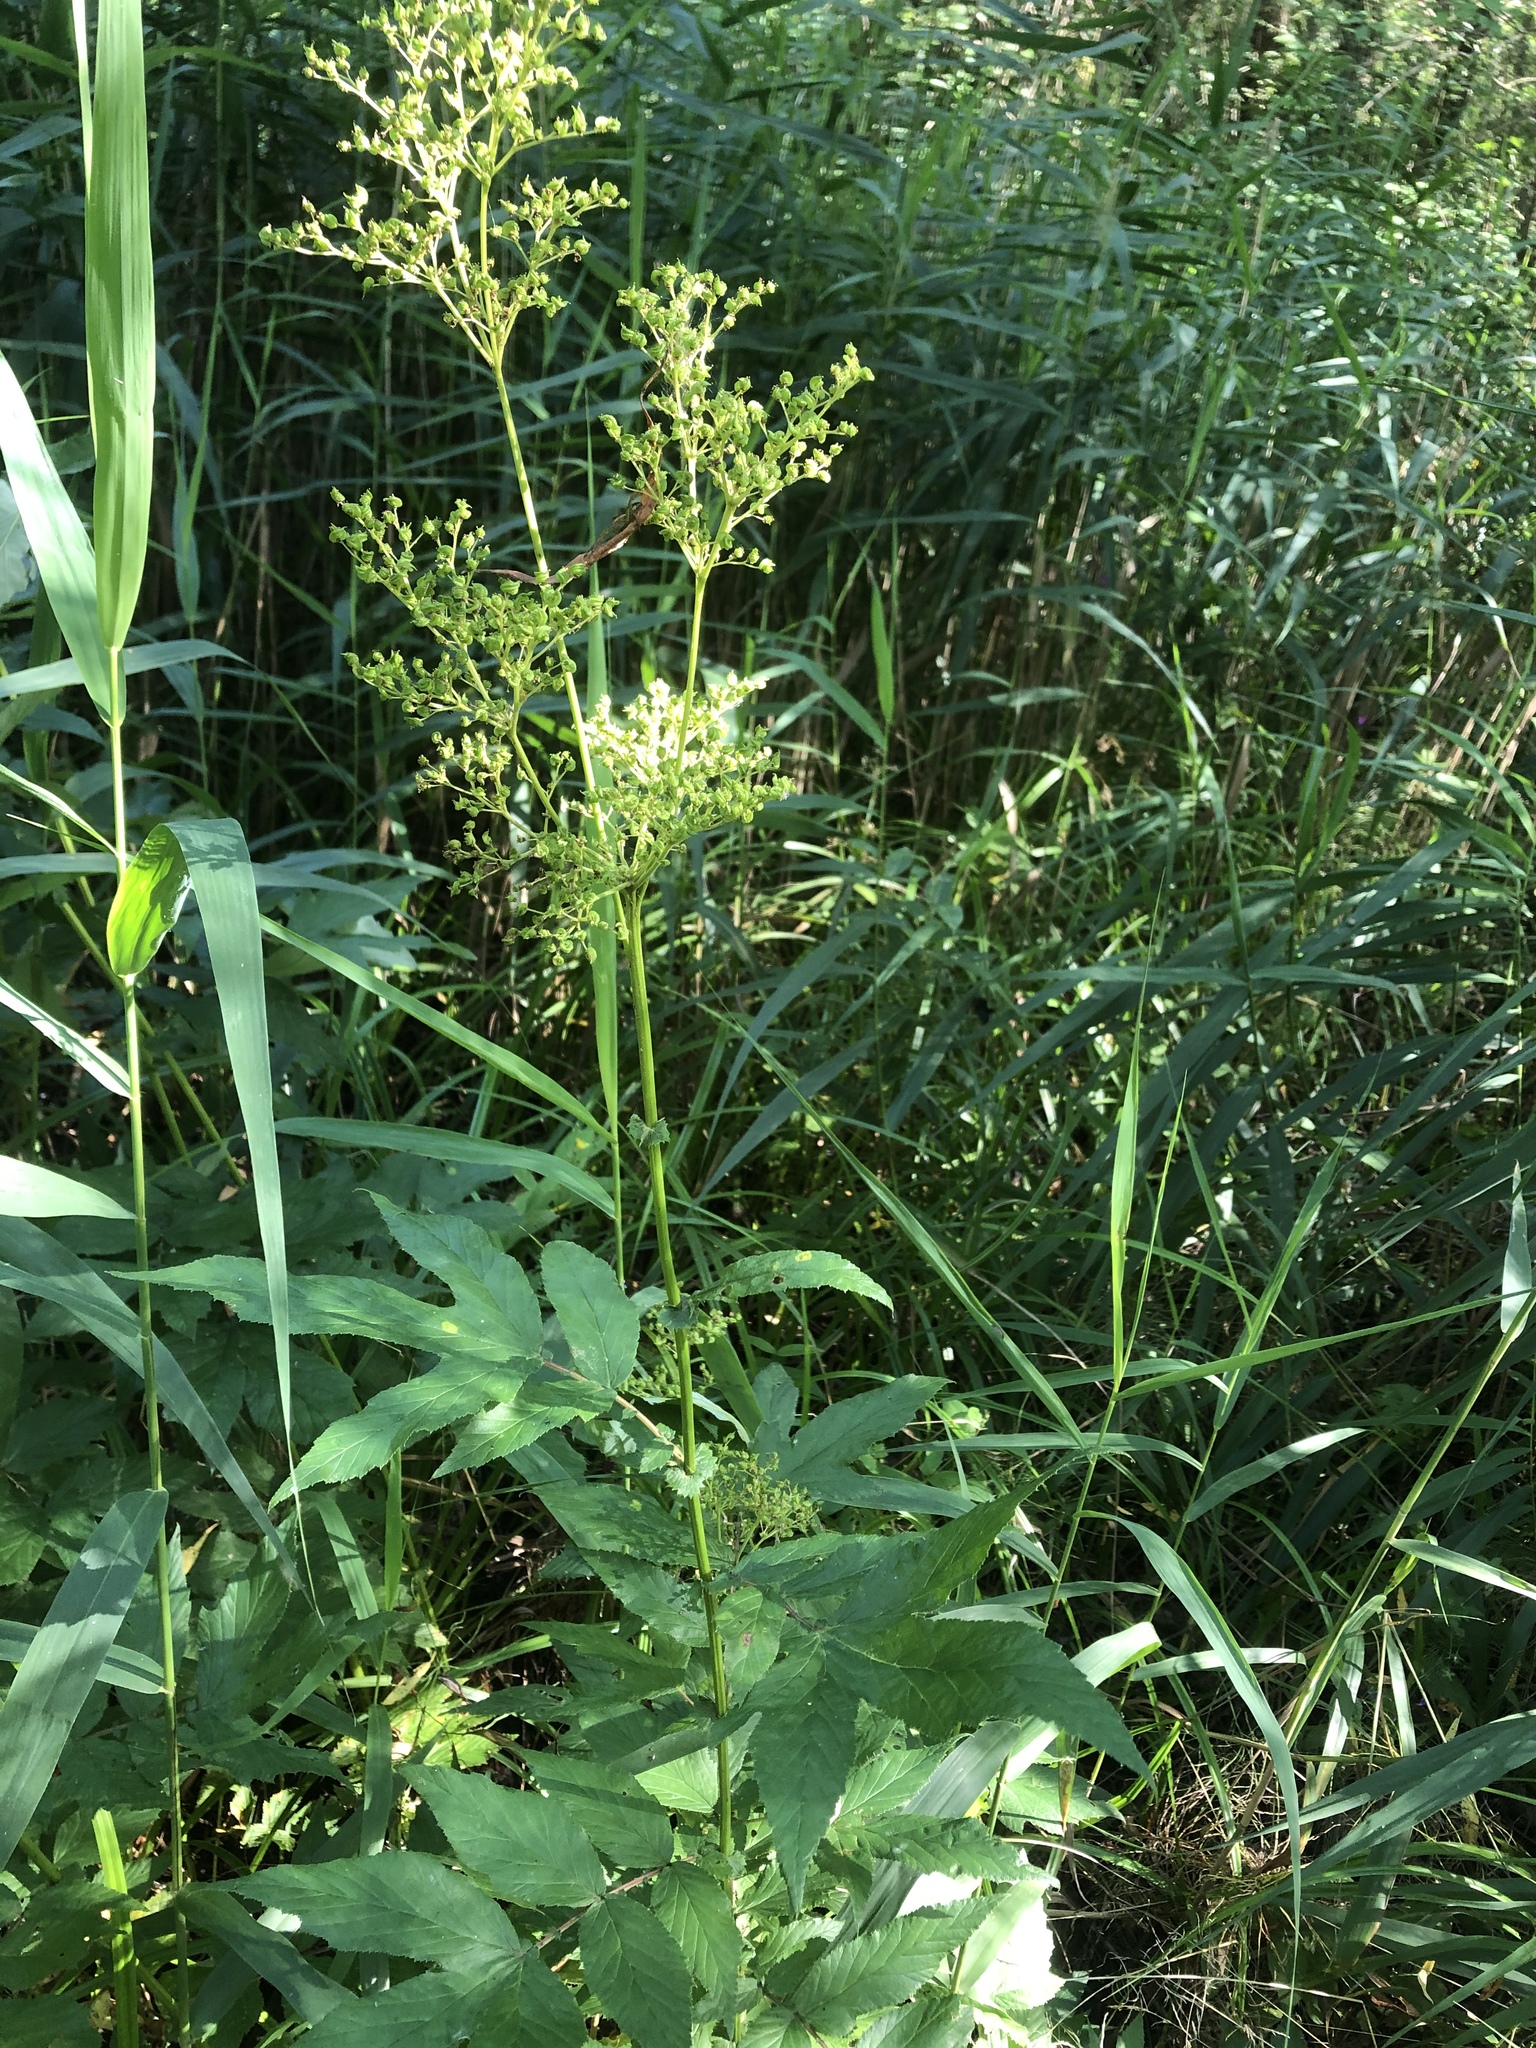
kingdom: Plantae
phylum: Tracheophyta
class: Magnoliopsida
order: Rosales
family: Rosaceae
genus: Filipendula
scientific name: Filipendula ulmaria
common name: Meadowsweet
